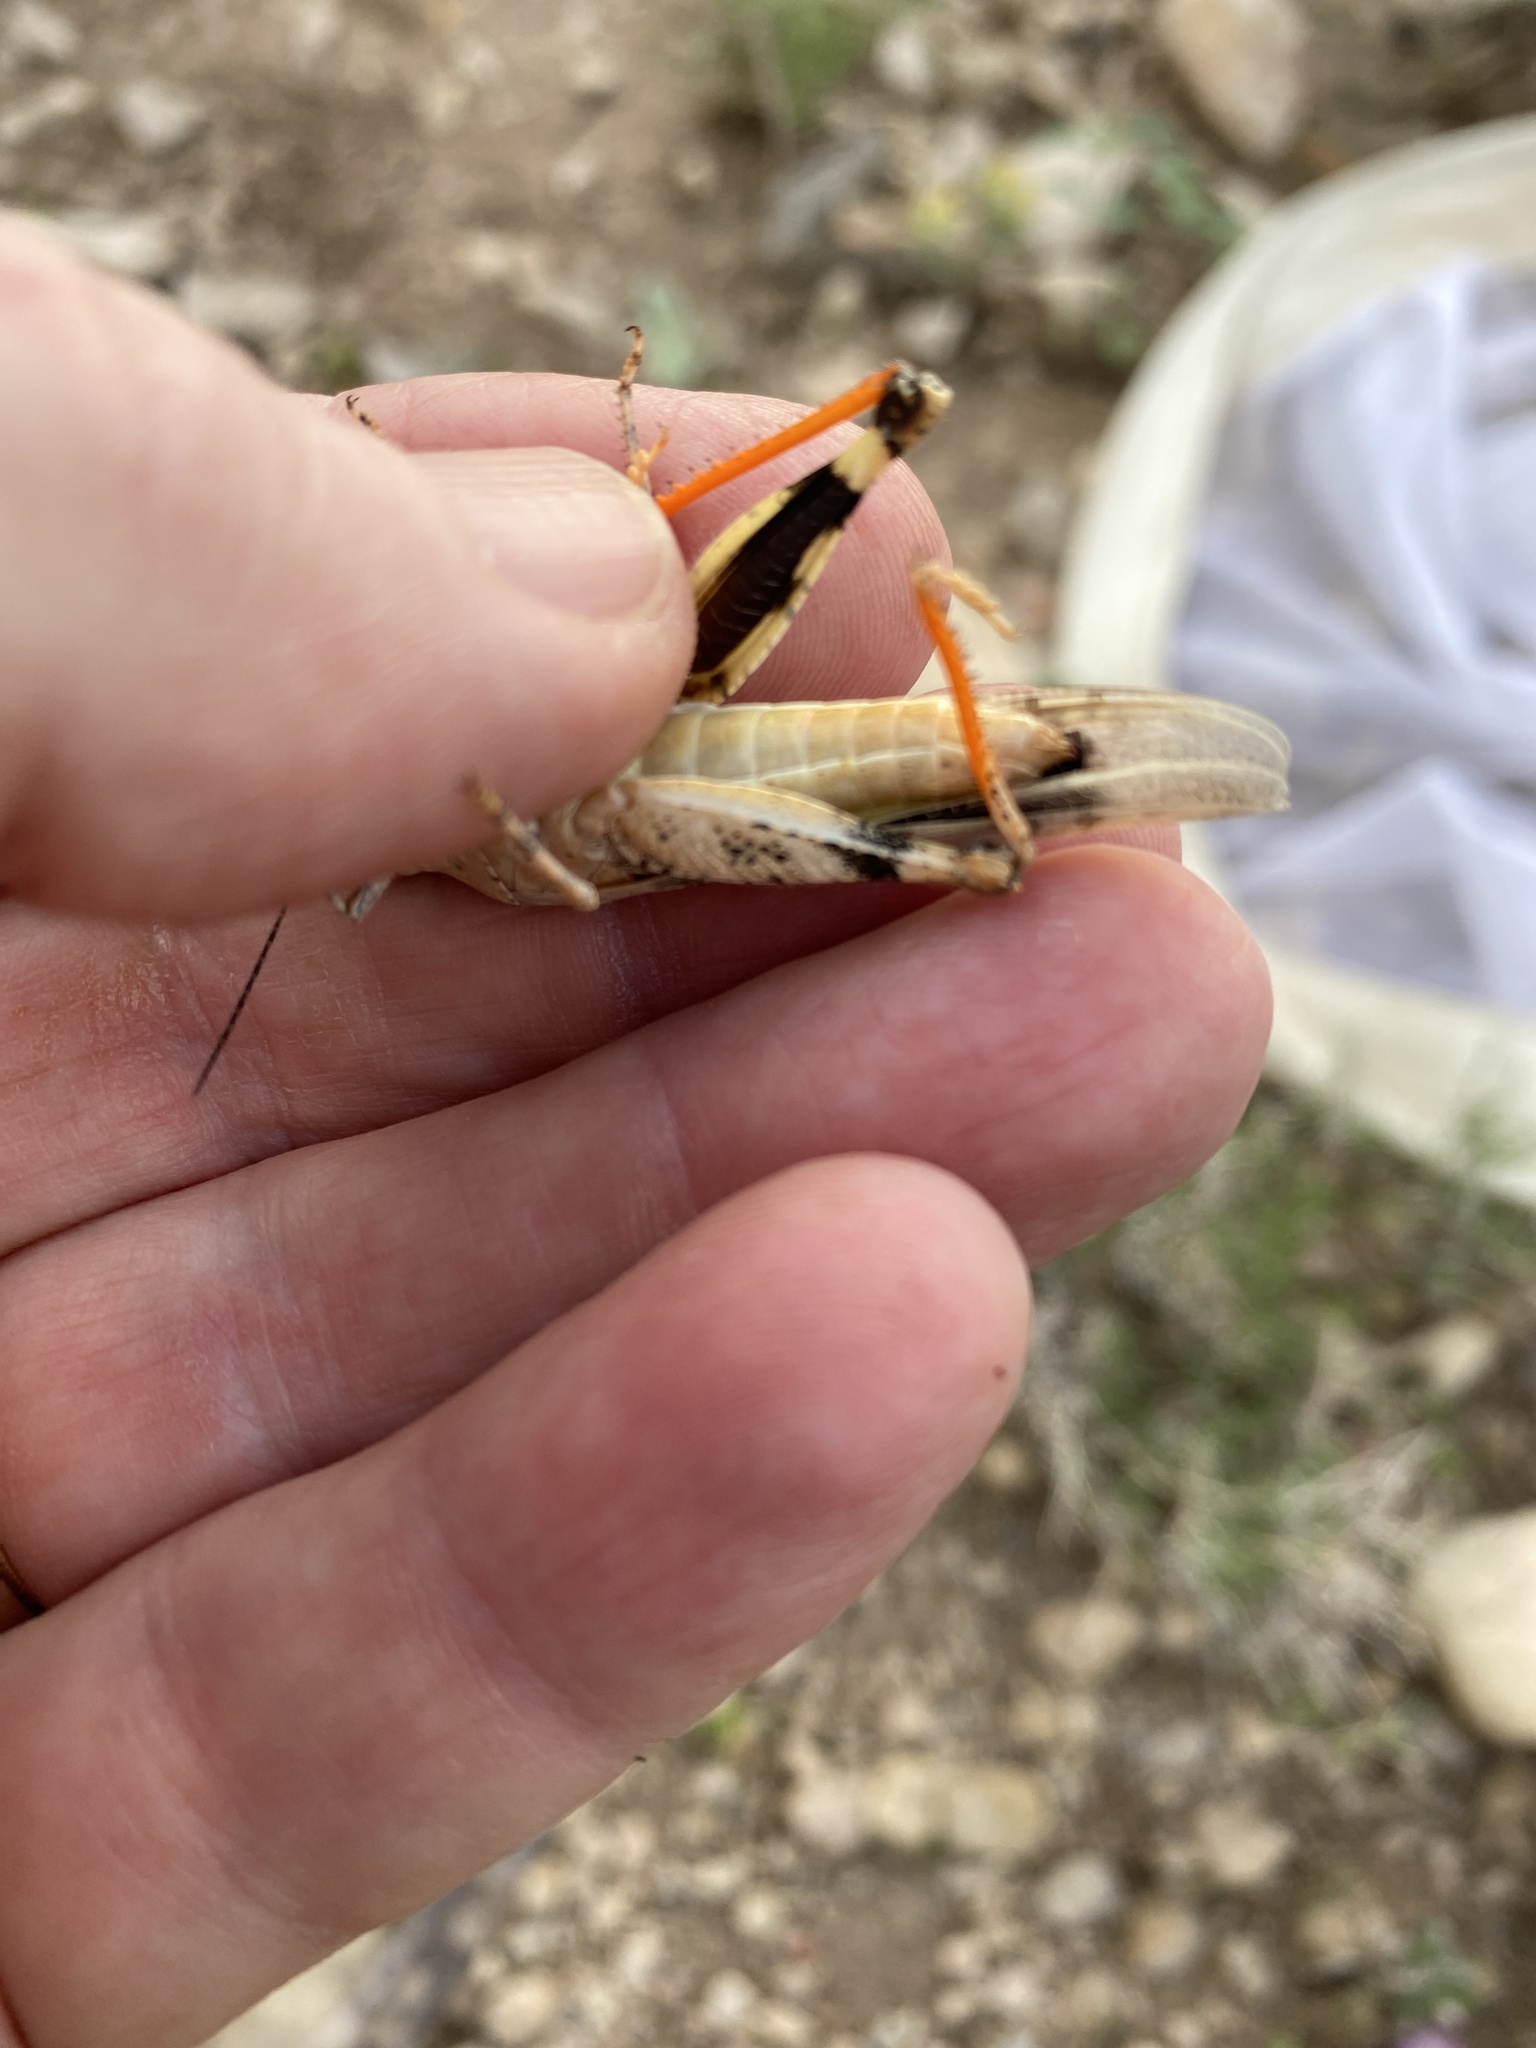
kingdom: Animalia
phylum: Arthropoda
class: Insecta
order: Orthoptera
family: Acrididae
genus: Trimerotropis
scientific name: Trimerotropis pistrinaria
